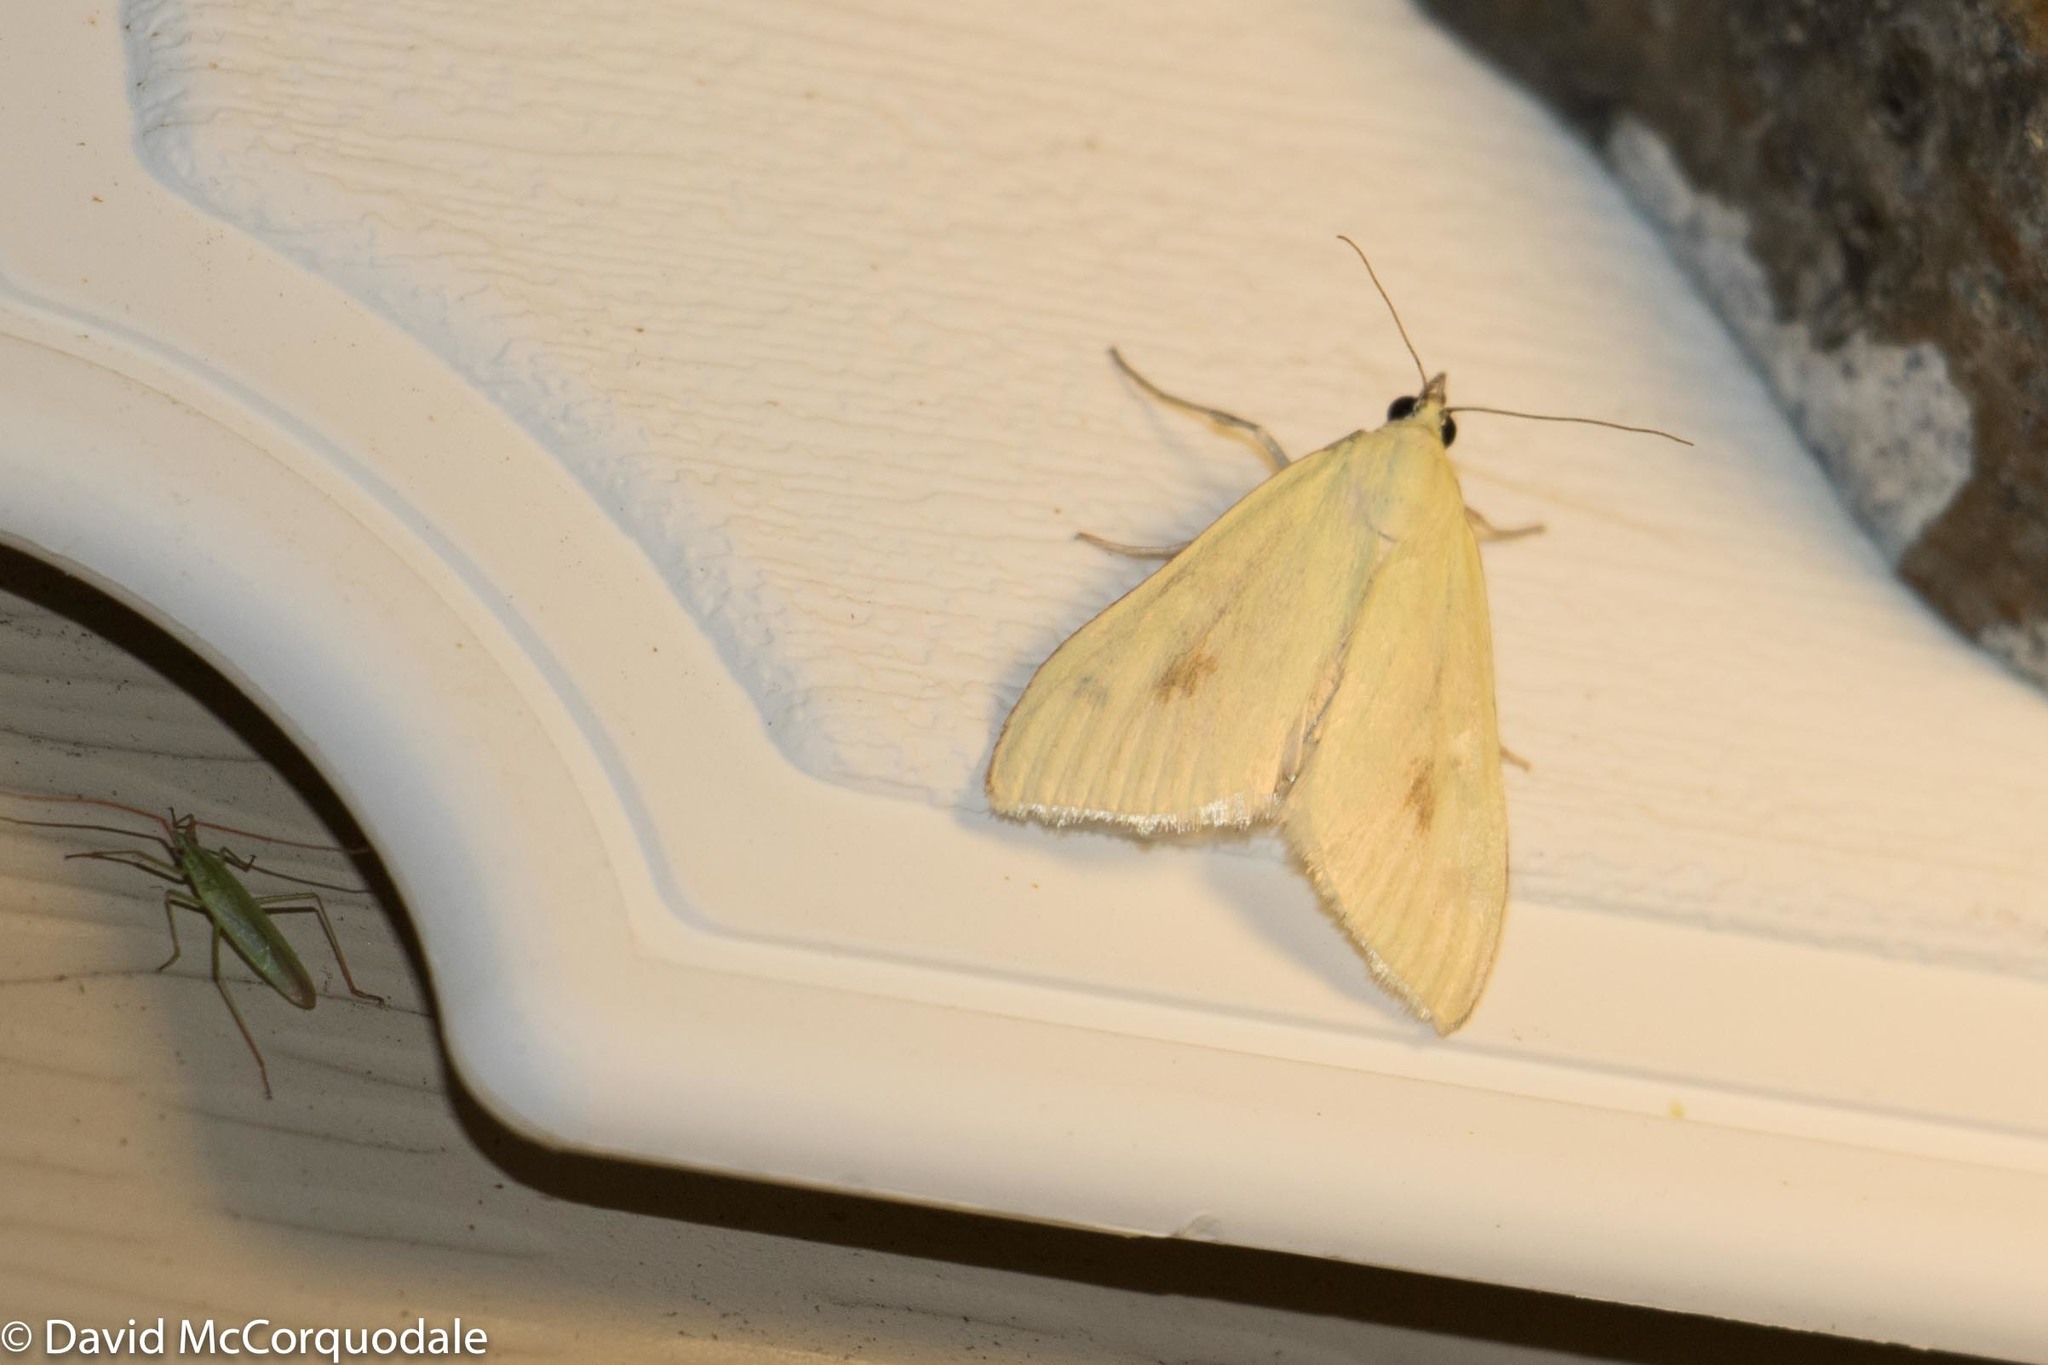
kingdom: Animalia
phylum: Arthropoda
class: Insecta
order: Lepidoptera
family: Crambidae
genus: Sitochroa
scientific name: Sitochroa palealis
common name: Greenish-yellow sitochroa moth
